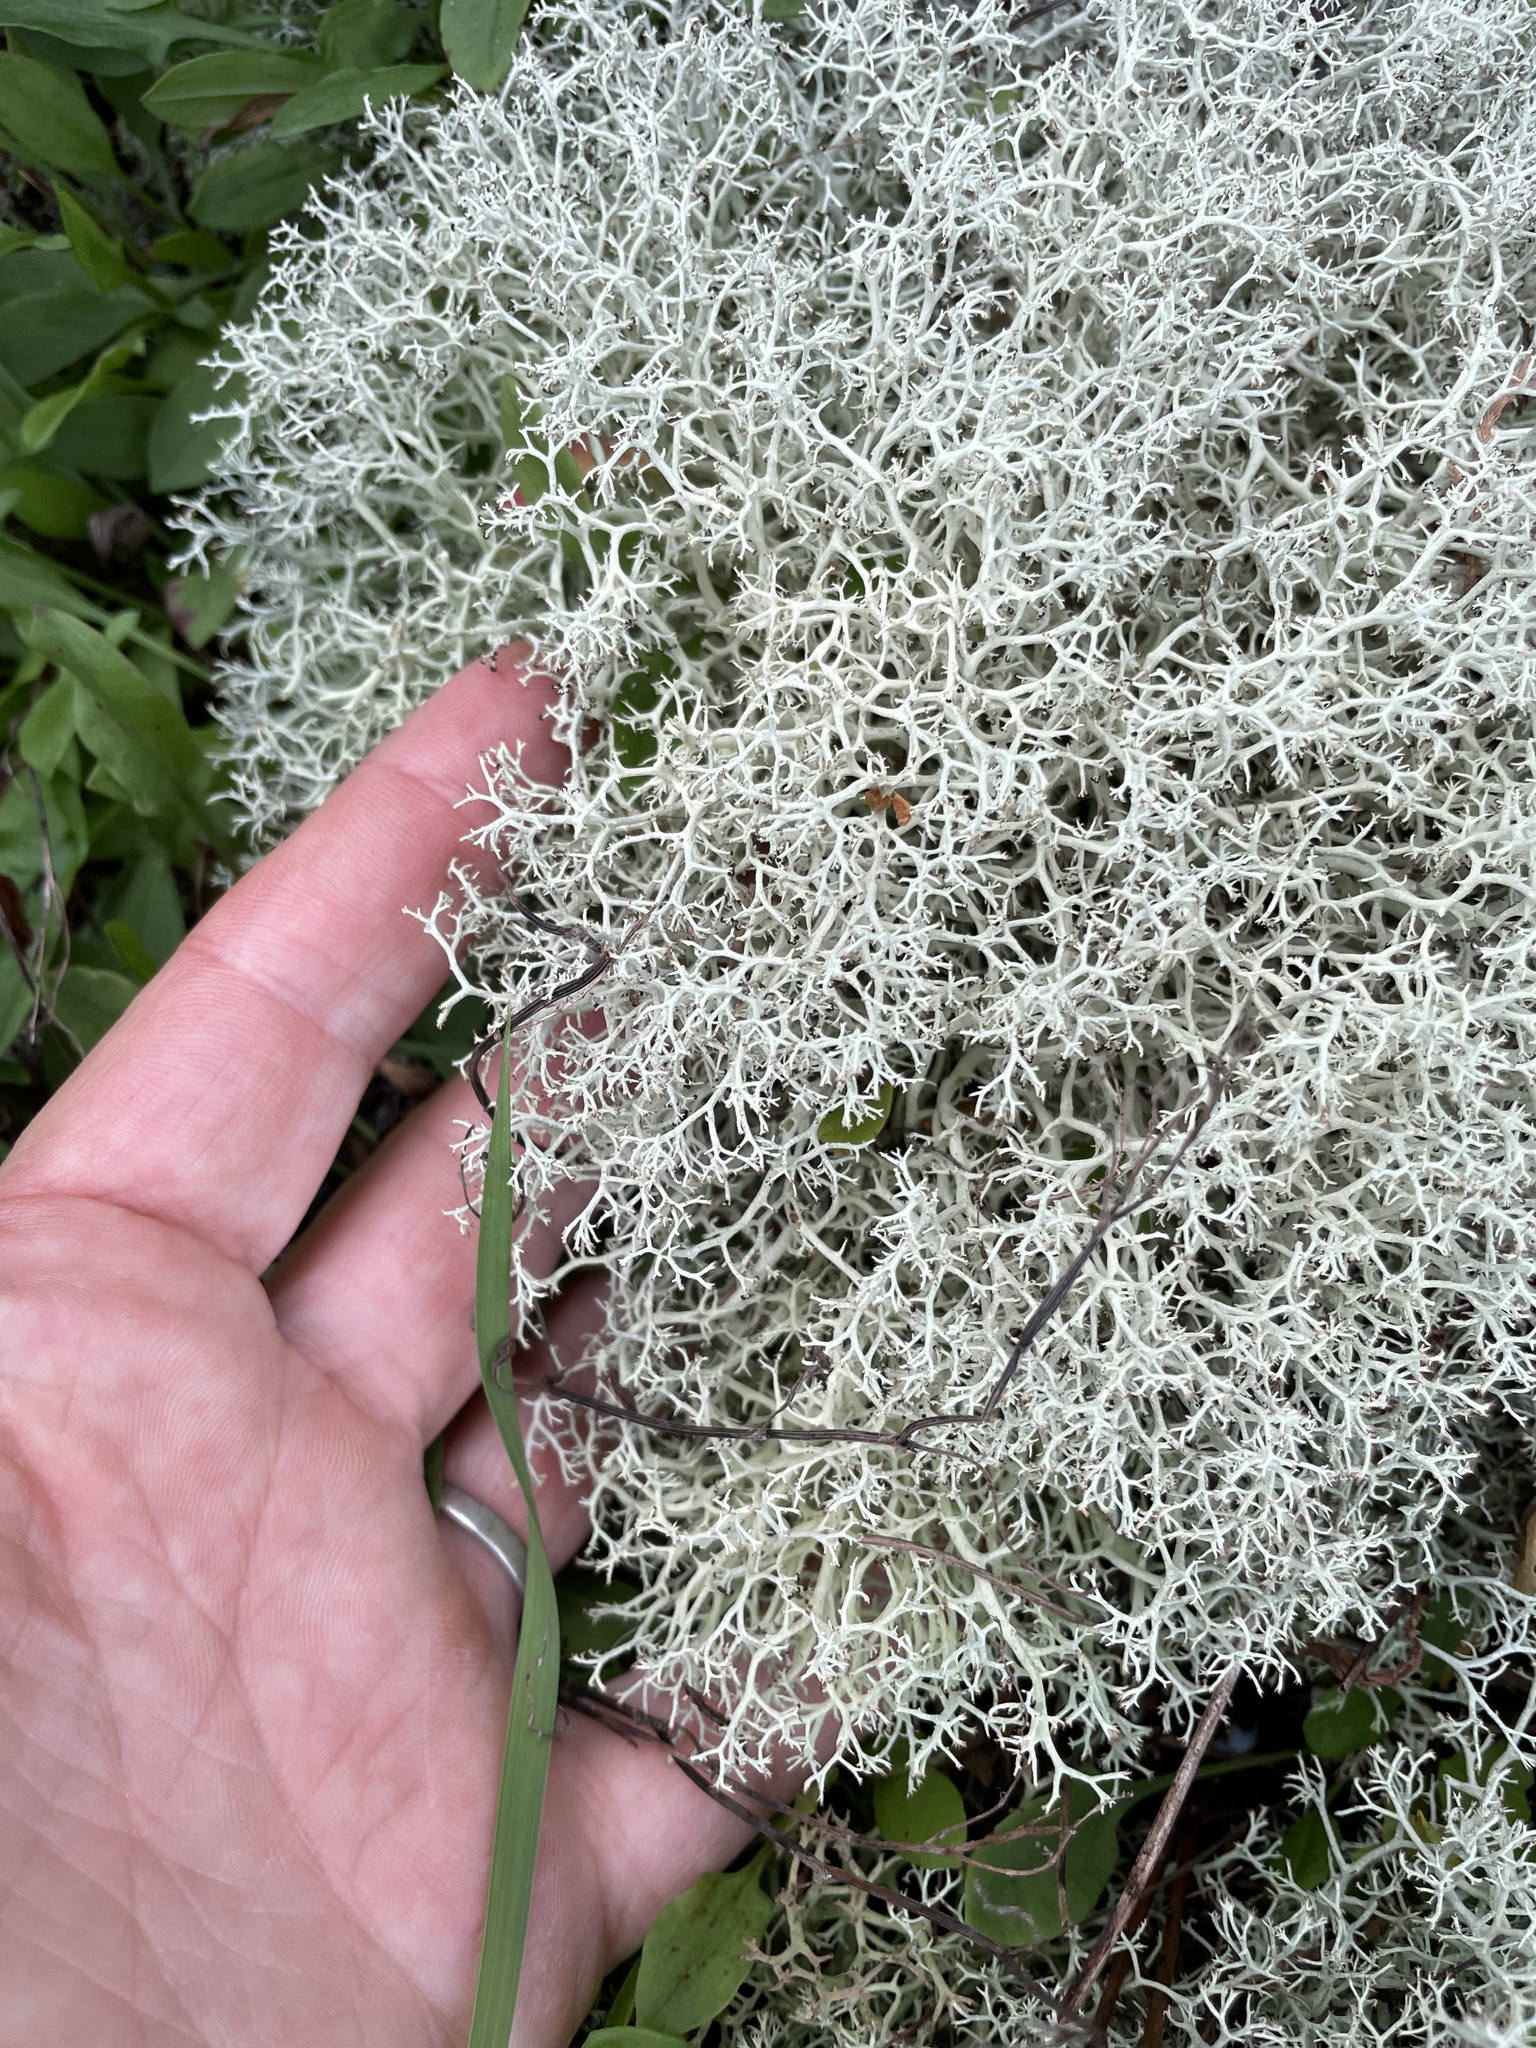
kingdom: Fungi
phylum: Ascomycota
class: Lecanoromycetes
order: Lecanorales
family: Cladoniaceae
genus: Cladonia
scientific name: Cladonia subtenuis
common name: Dixie reindeer lichen
